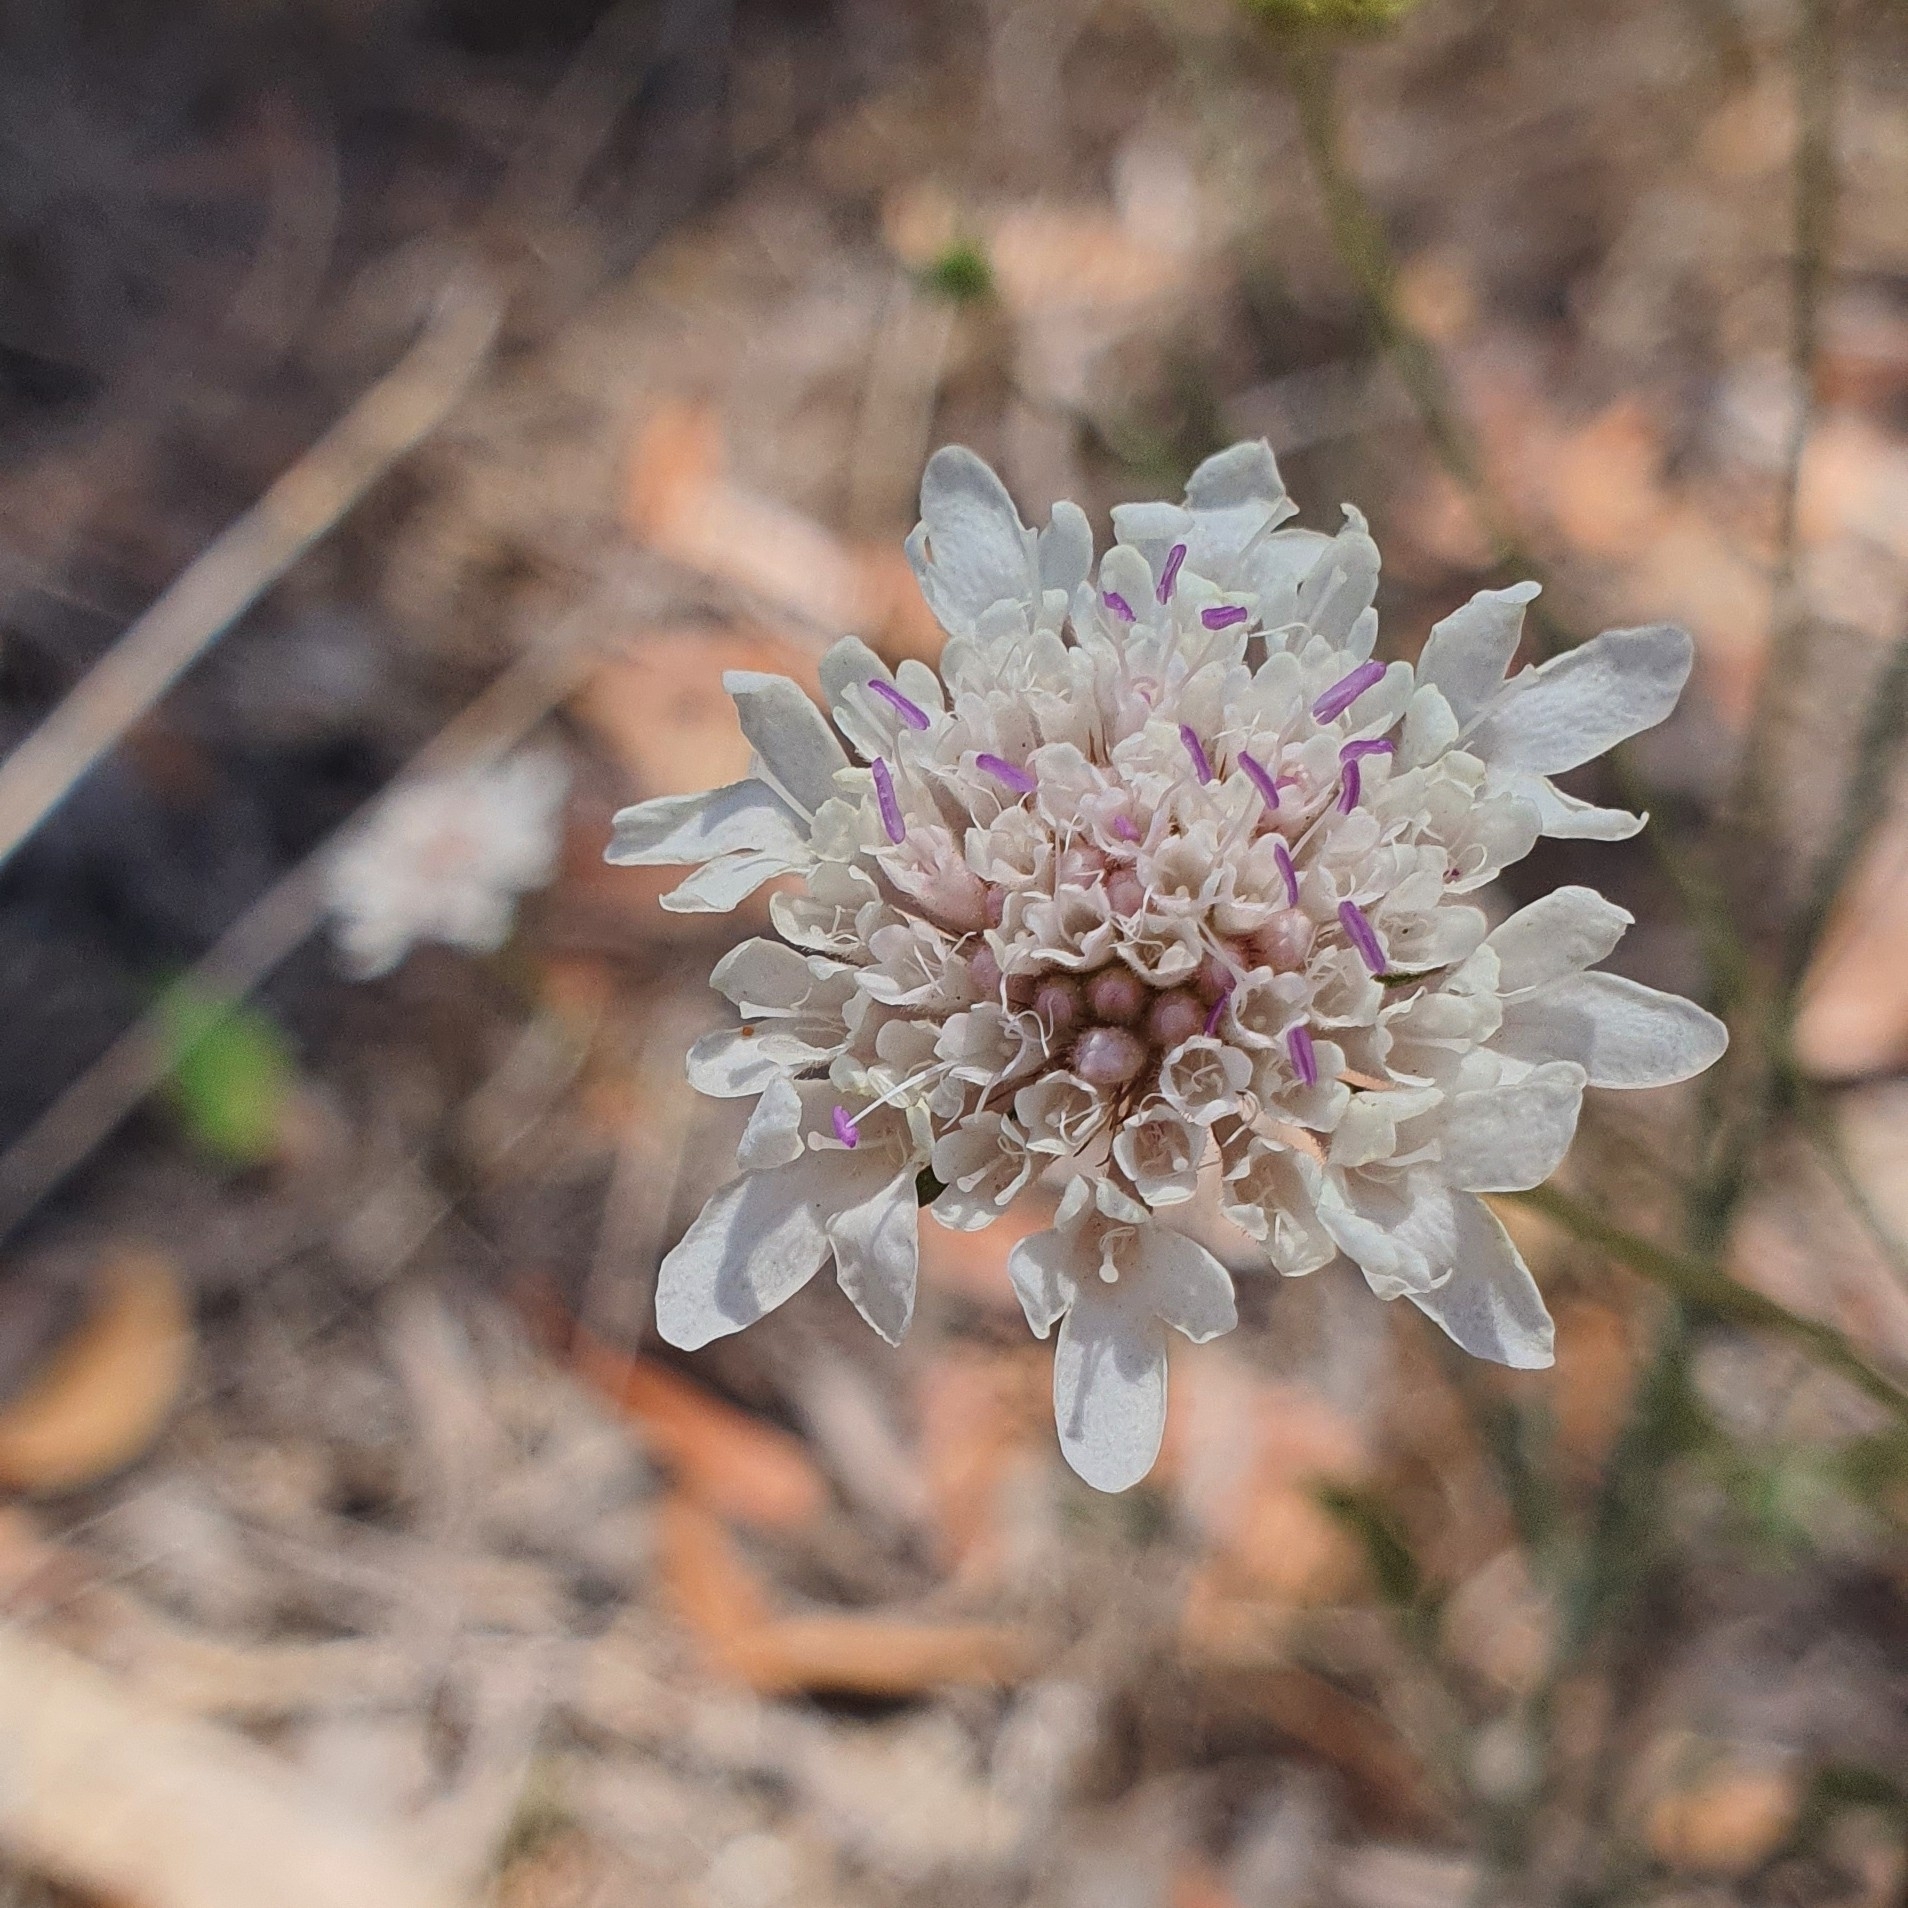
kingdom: Plantae
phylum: Tracheophyta
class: Magnoliopsida
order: Dipsacales
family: Caprifoliaceae
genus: Sixalix
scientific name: Sixalix atropurpurea
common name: Sweet scabious
